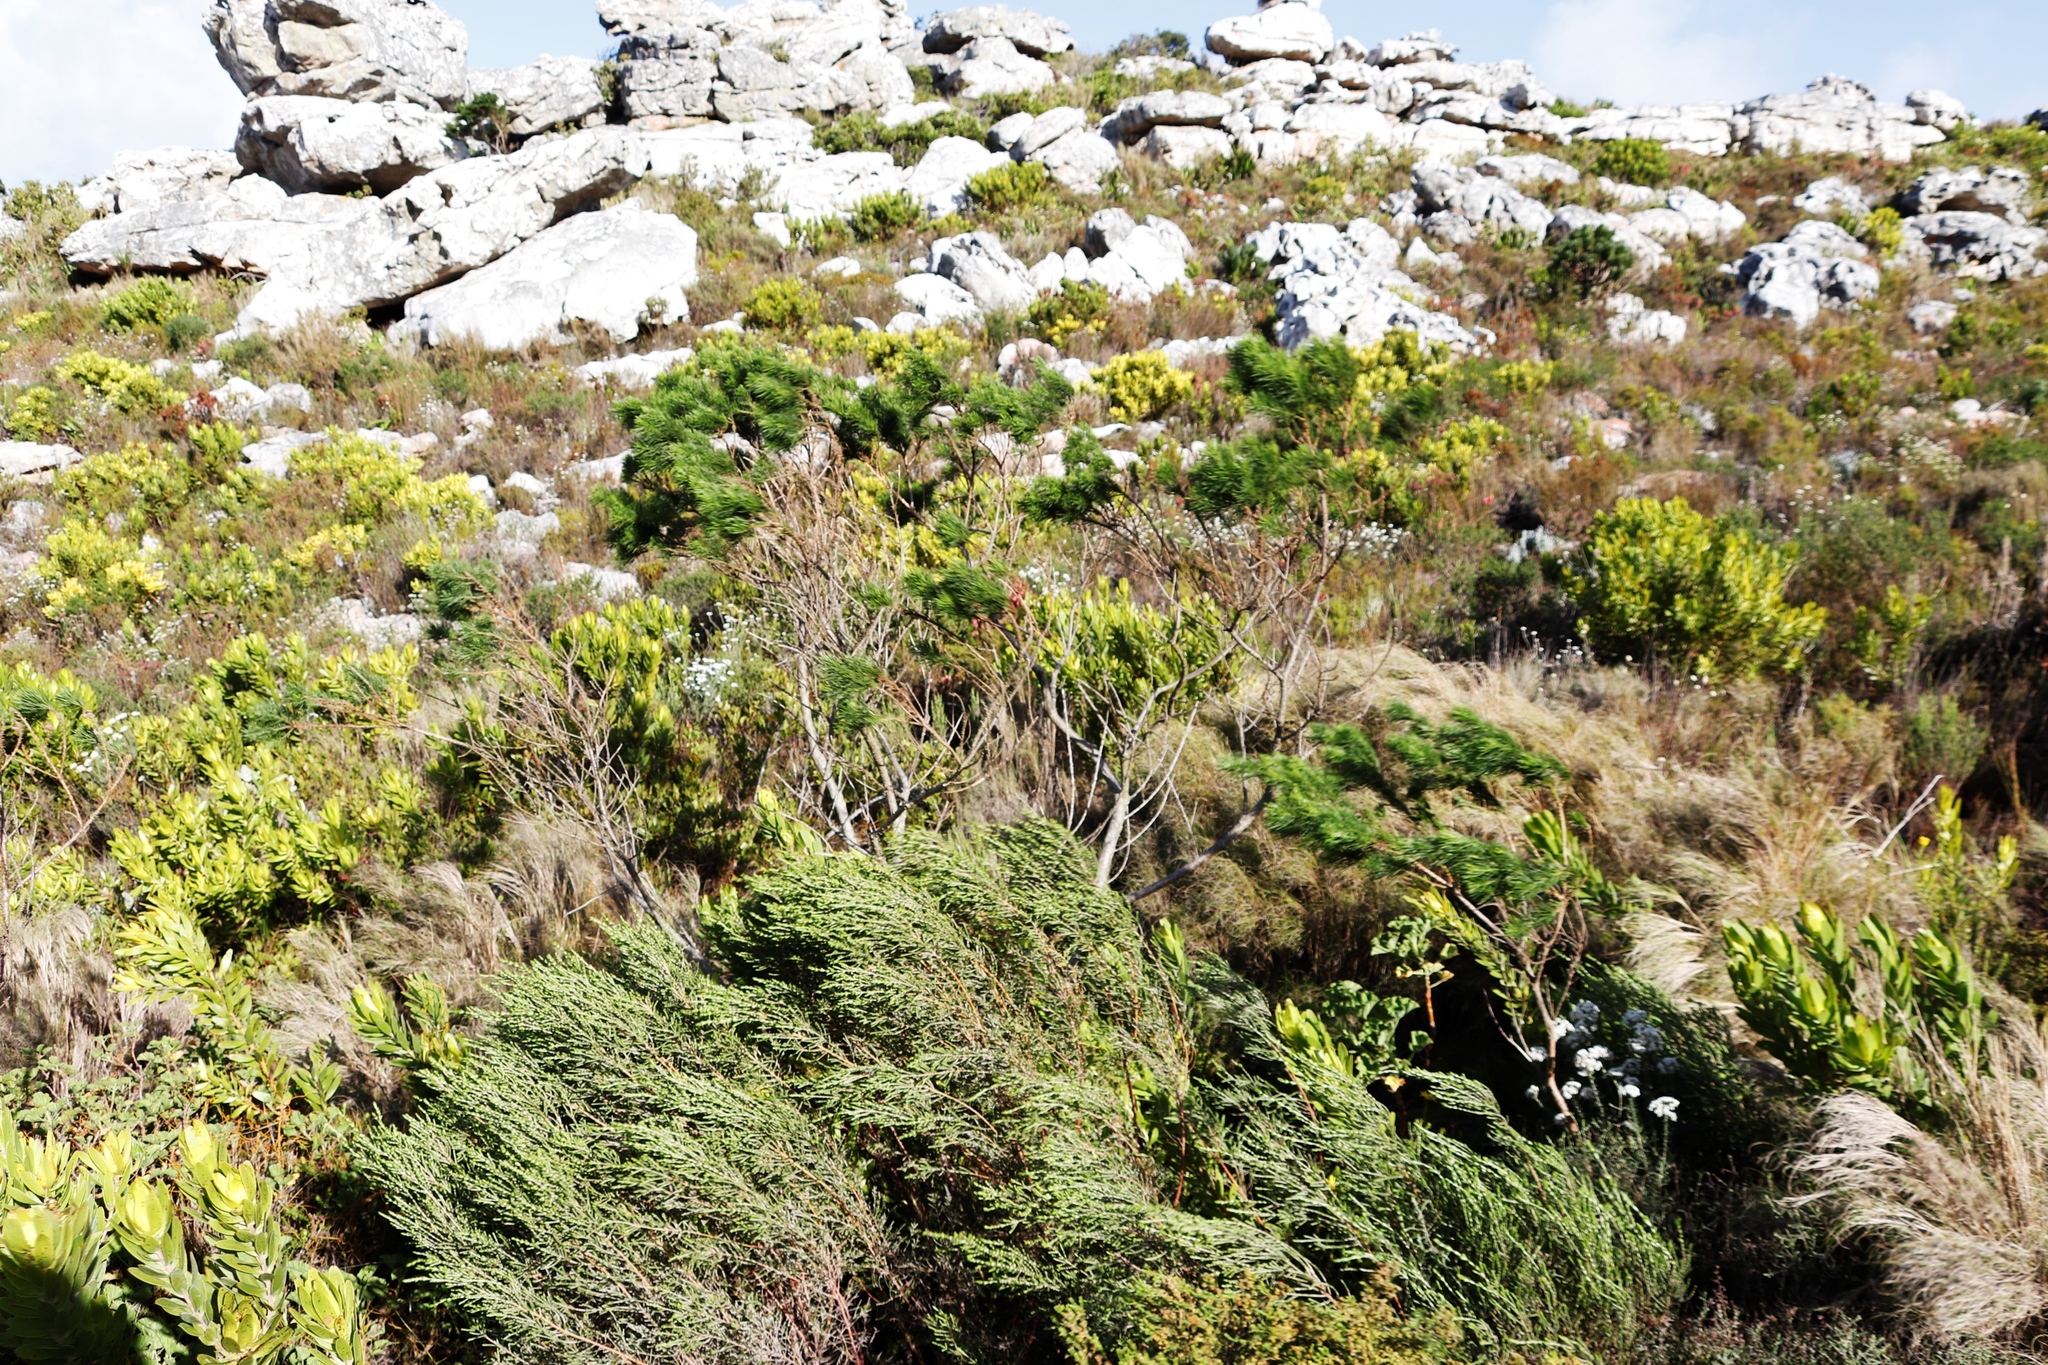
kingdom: Plantae
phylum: Tracheophyta
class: Magnoliopsida
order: Fabales
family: Fabaceae
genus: Psoralea
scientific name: Psoralea pinnata
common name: African scurfpea
